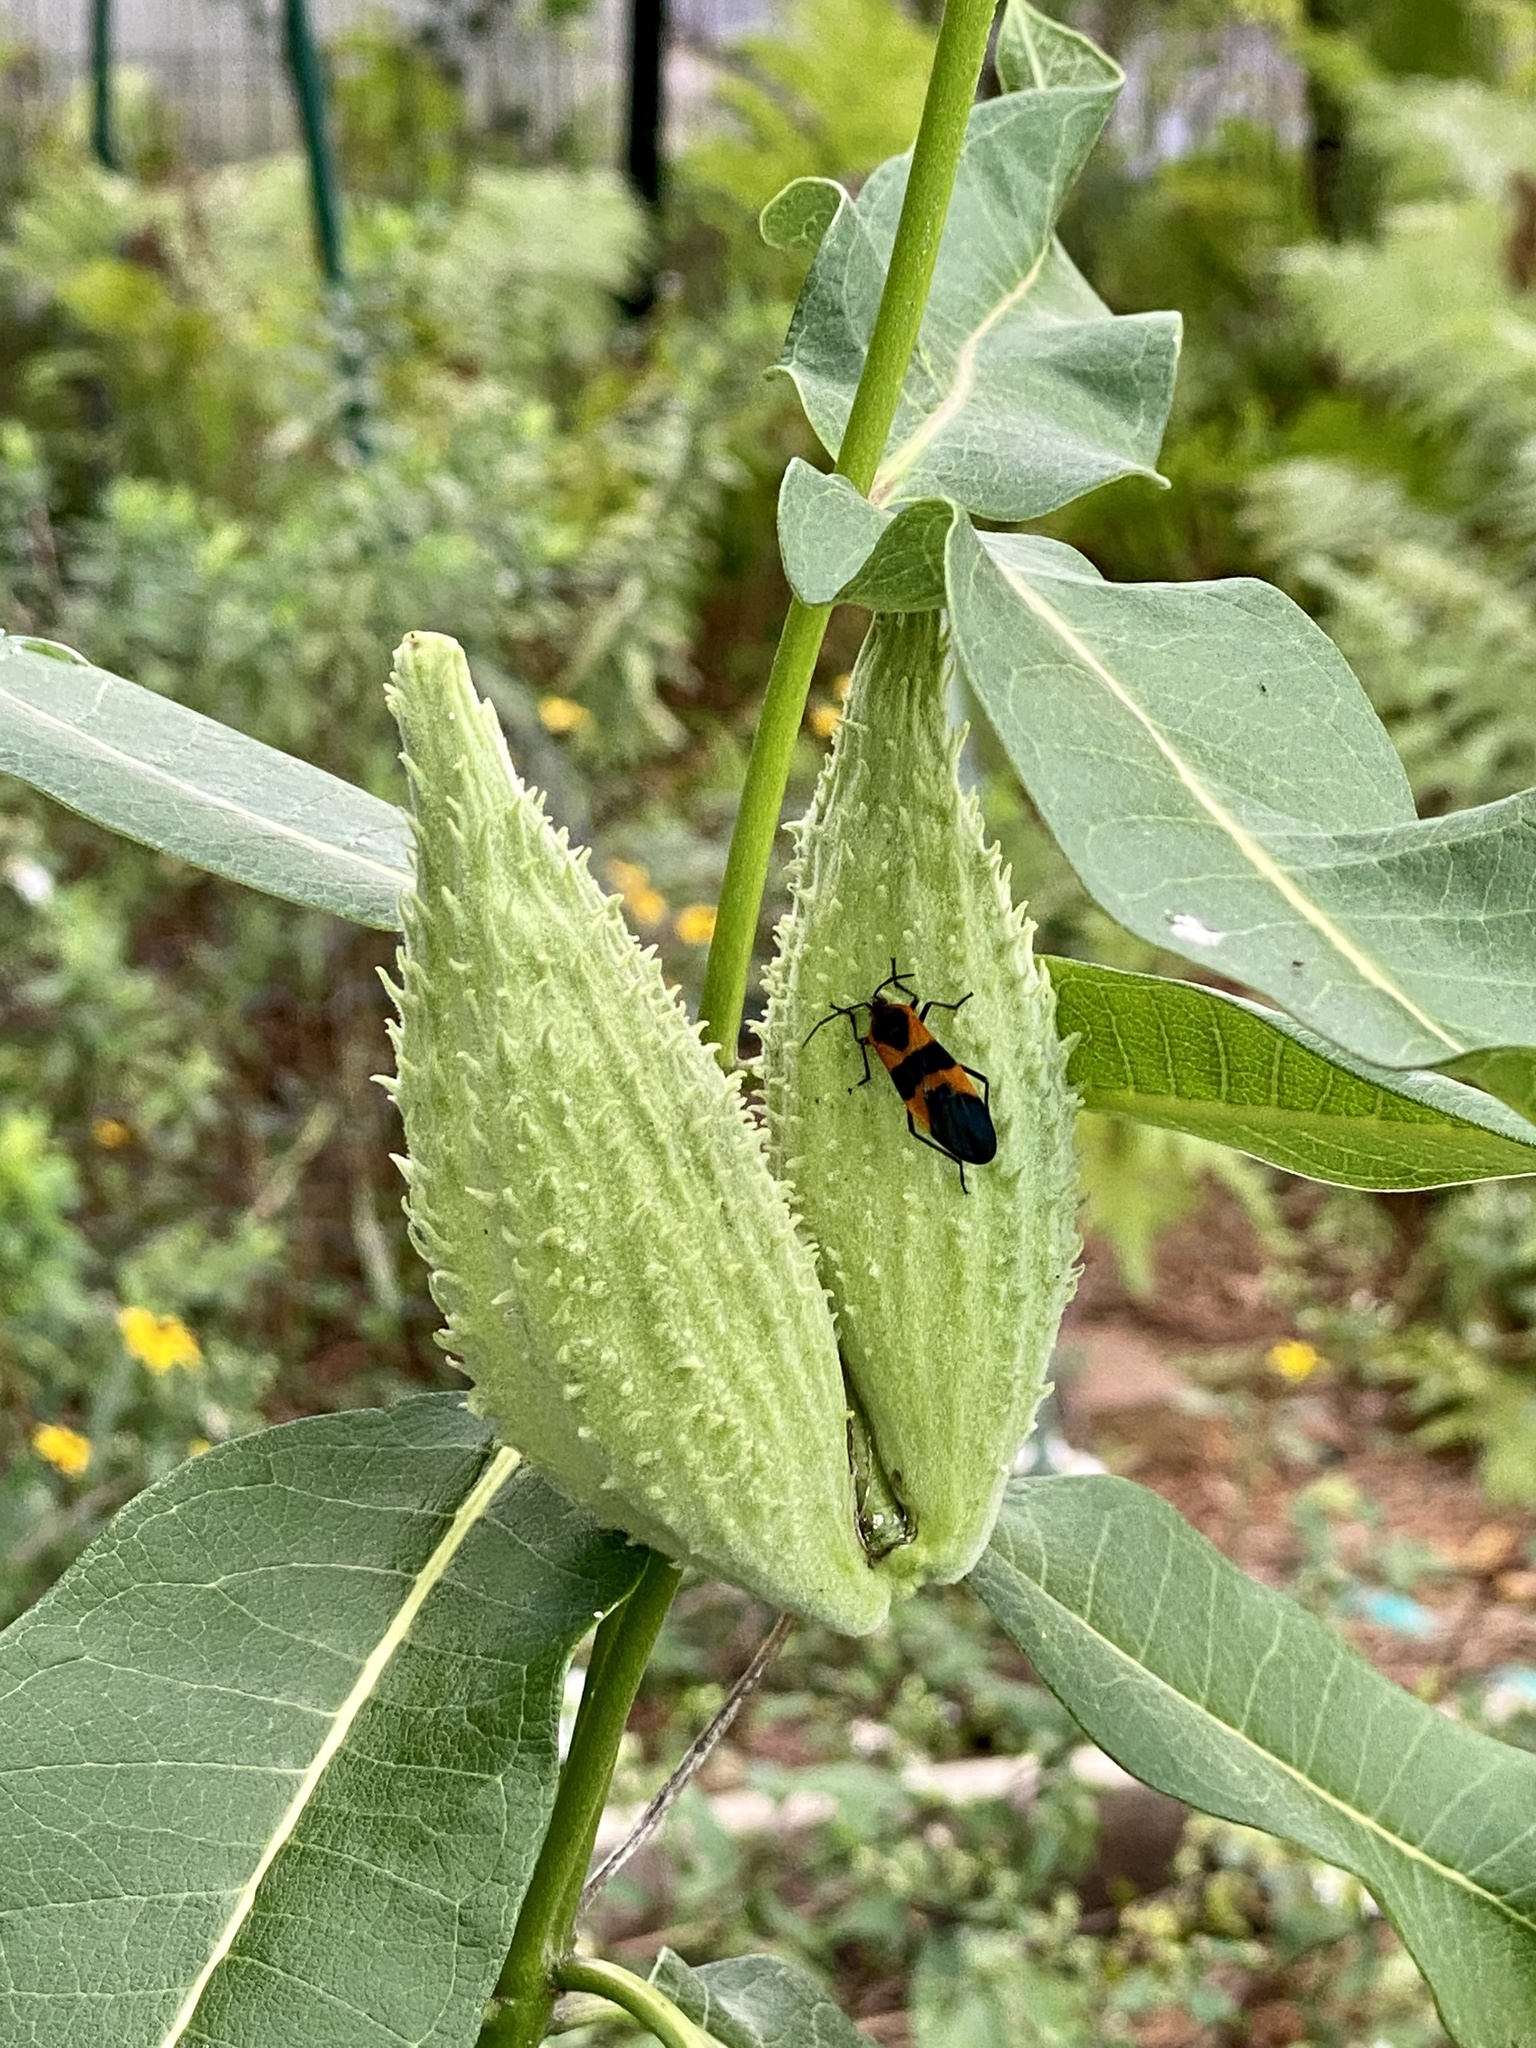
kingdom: Plantae
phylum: Tracheophyta
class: Magnoliopsida
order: Gentianales
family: Apocynaceae
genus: Asclepias
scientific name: Asclepias syriaca
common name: Common milkweed
